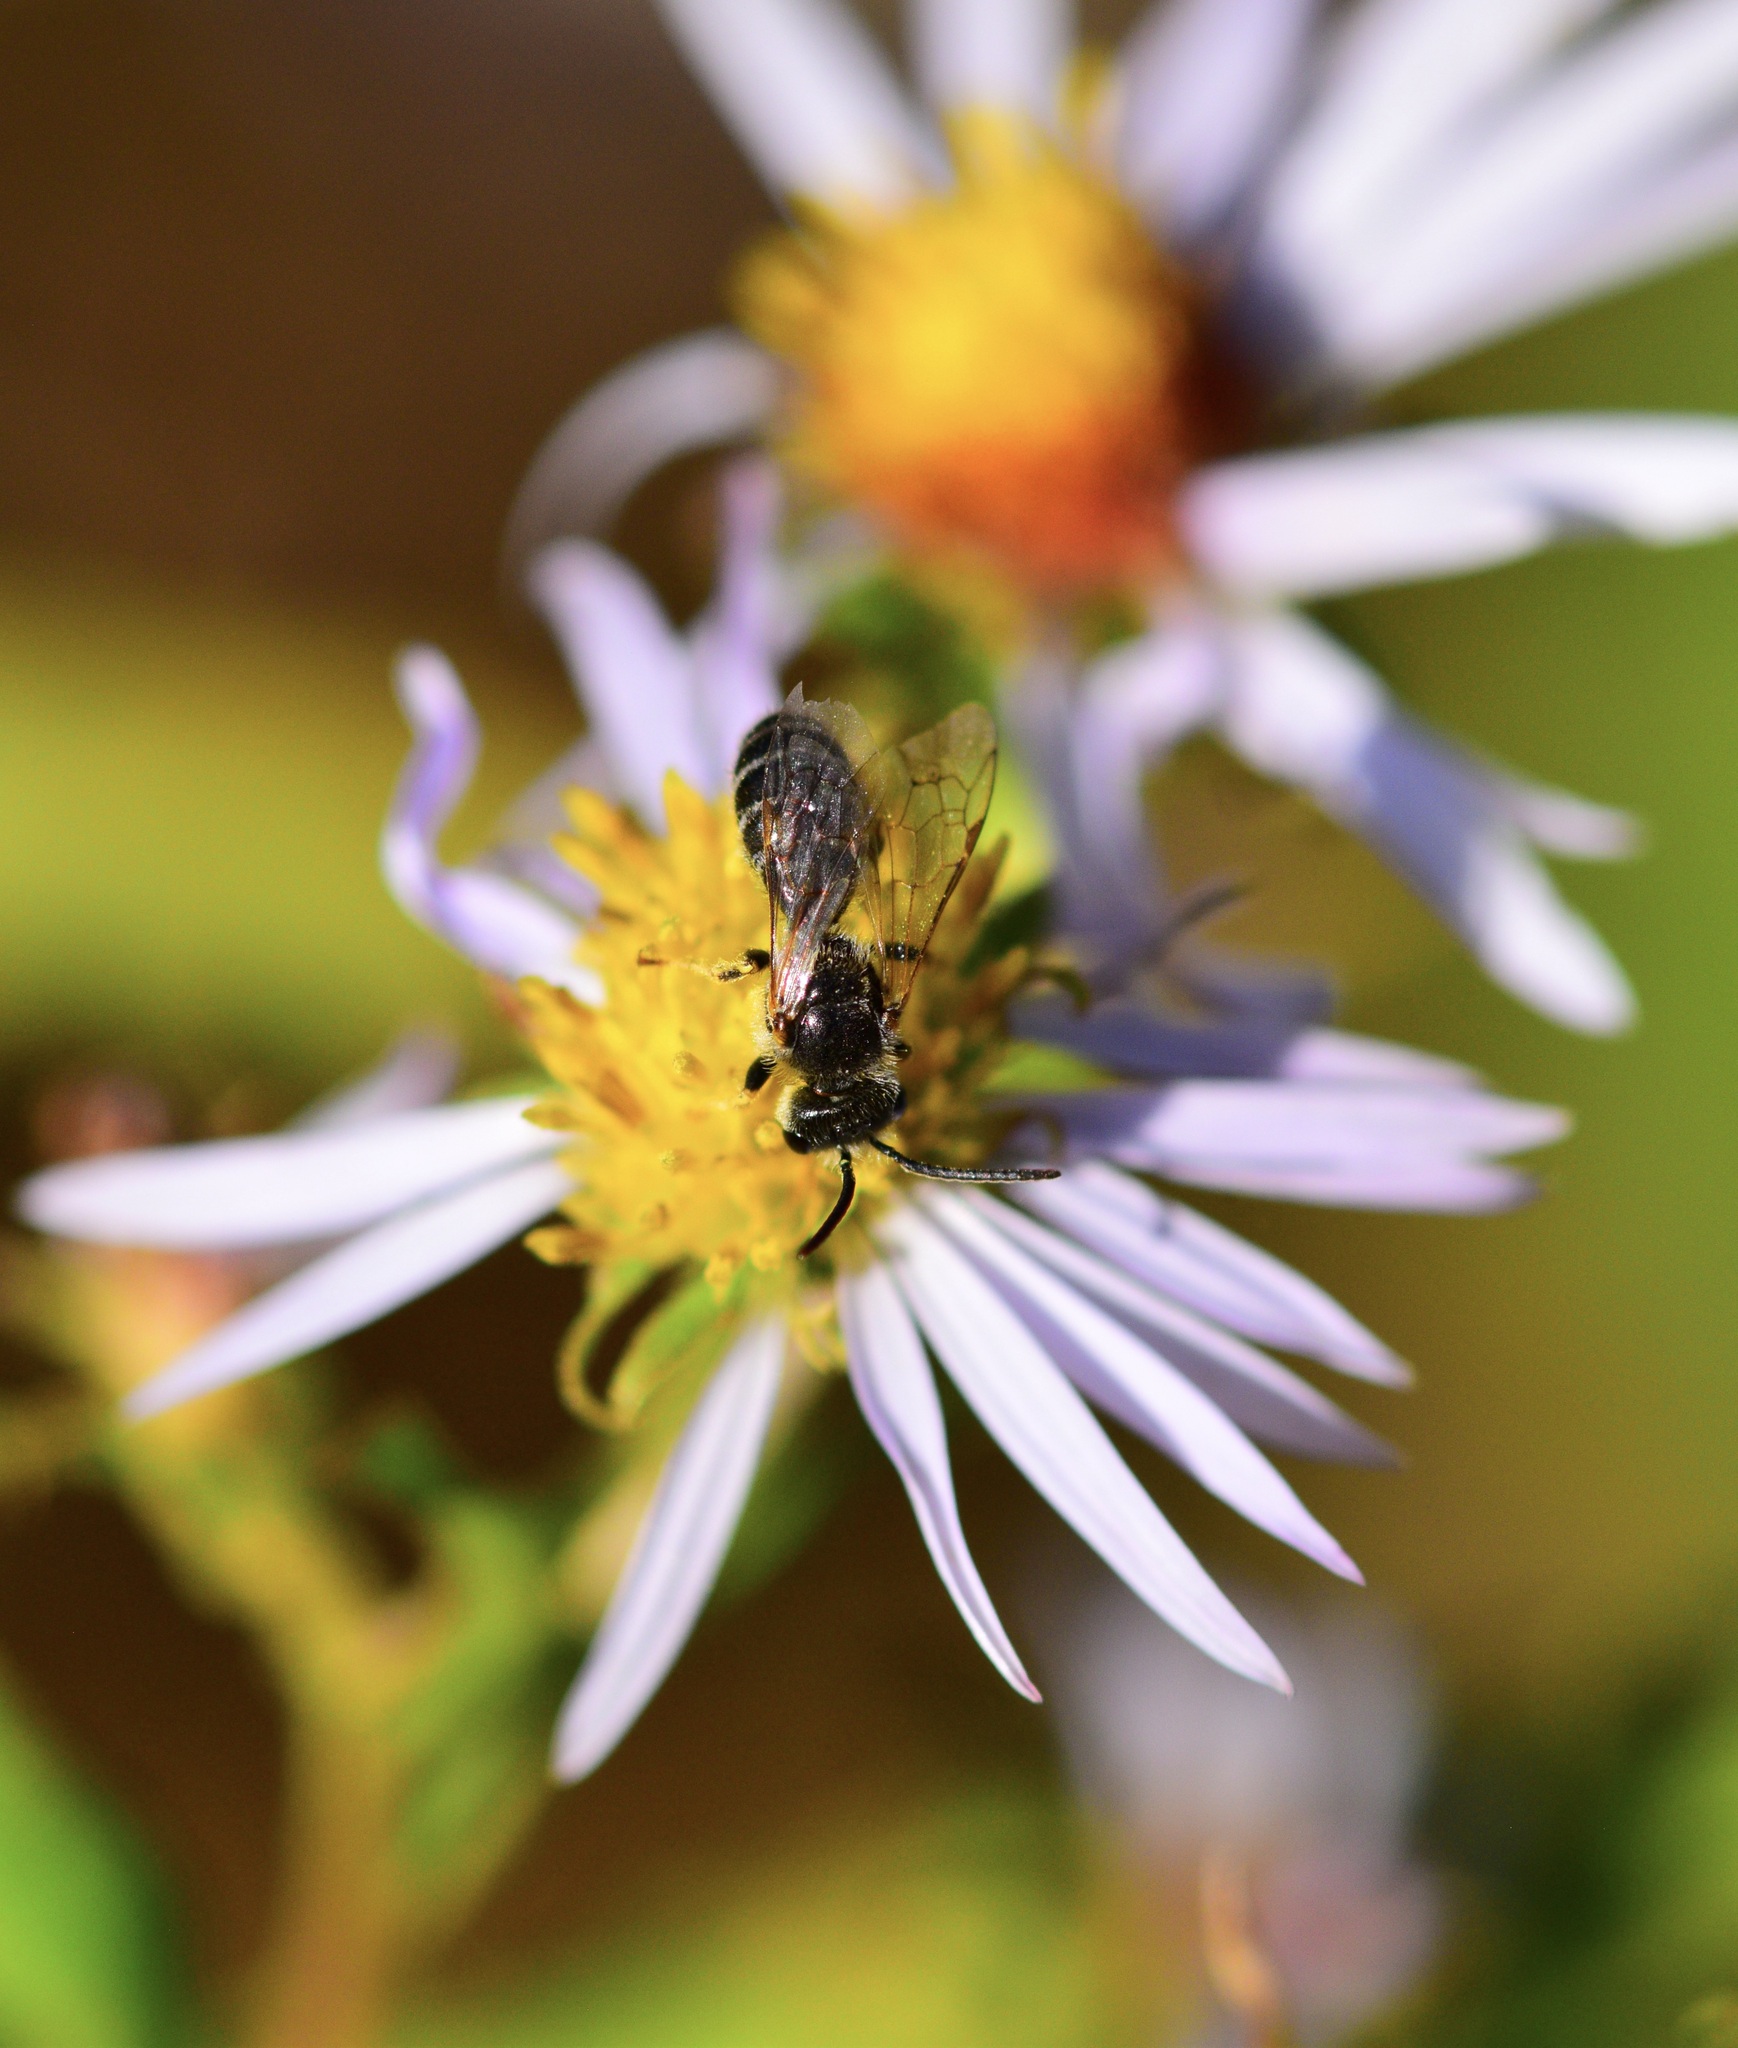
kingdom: Animalia
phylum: Arthropoda
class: Insecta
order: Hymenoptera
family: Halictidae
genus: Halictus
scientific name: Halictus ligatus
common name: Ligated furrow bee
